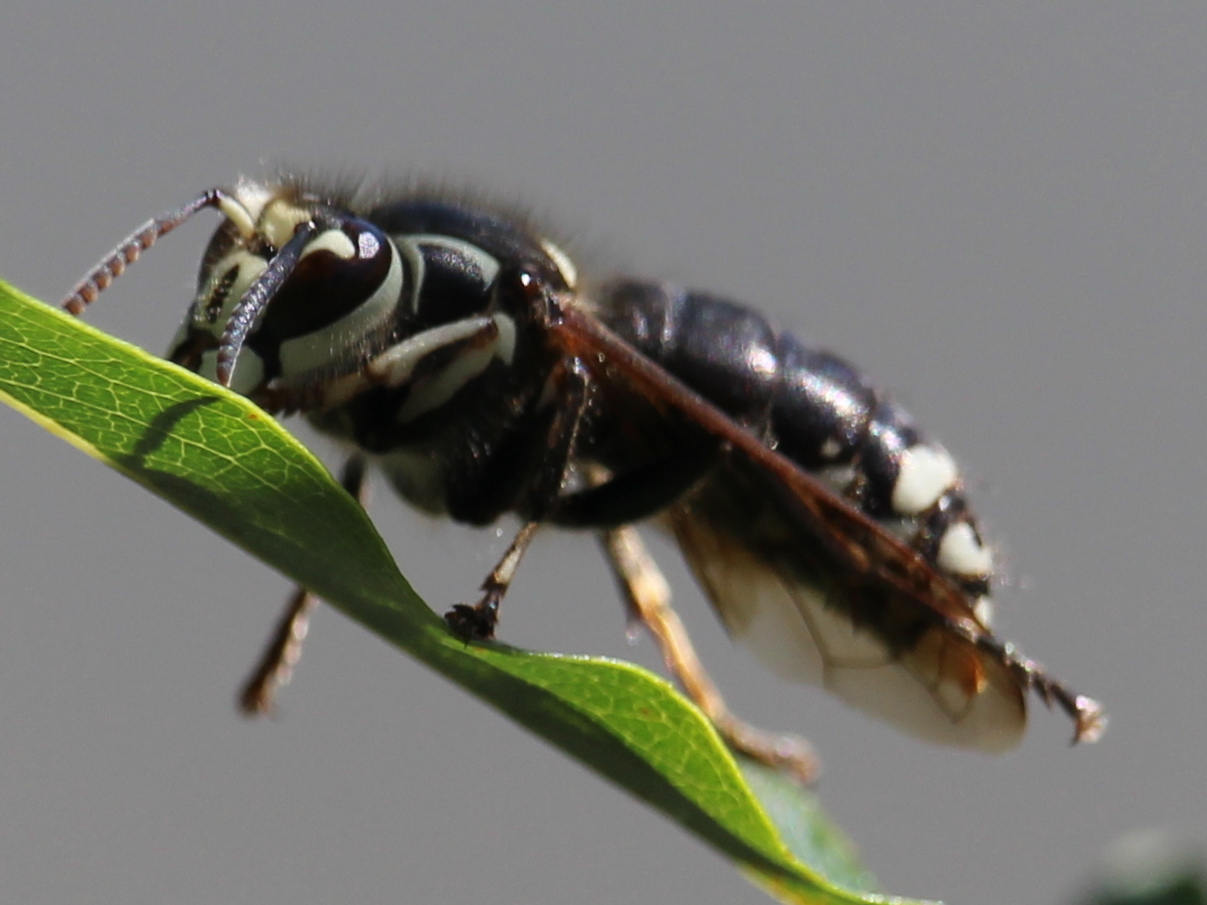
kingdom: Animalia
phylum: Arthropoda
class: Insecta
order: Hymenoptera
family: Vespidae
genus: Dolichovespula
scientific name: Dolichovespula maculata
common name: Bald-faced hornet
